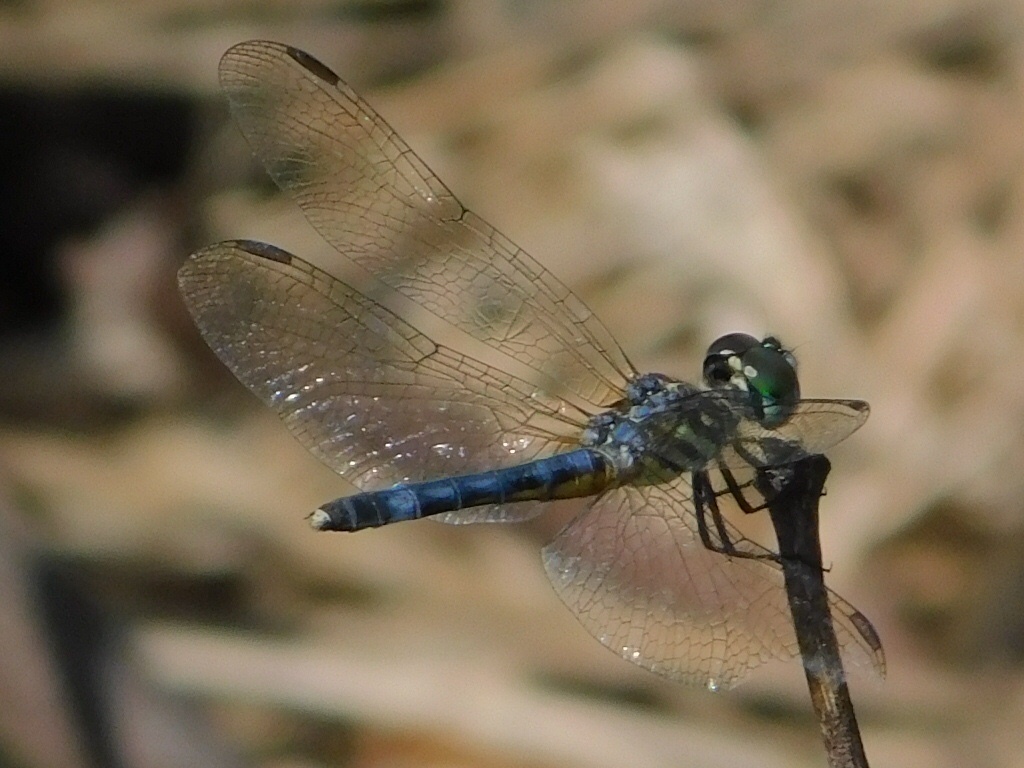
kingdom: Animalia
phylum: Arthropoda
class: Insecta
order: Odonata
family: Libellulidae
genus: Pachydiplax
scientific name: Pachydiplax longipennis
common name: Blue dasher
